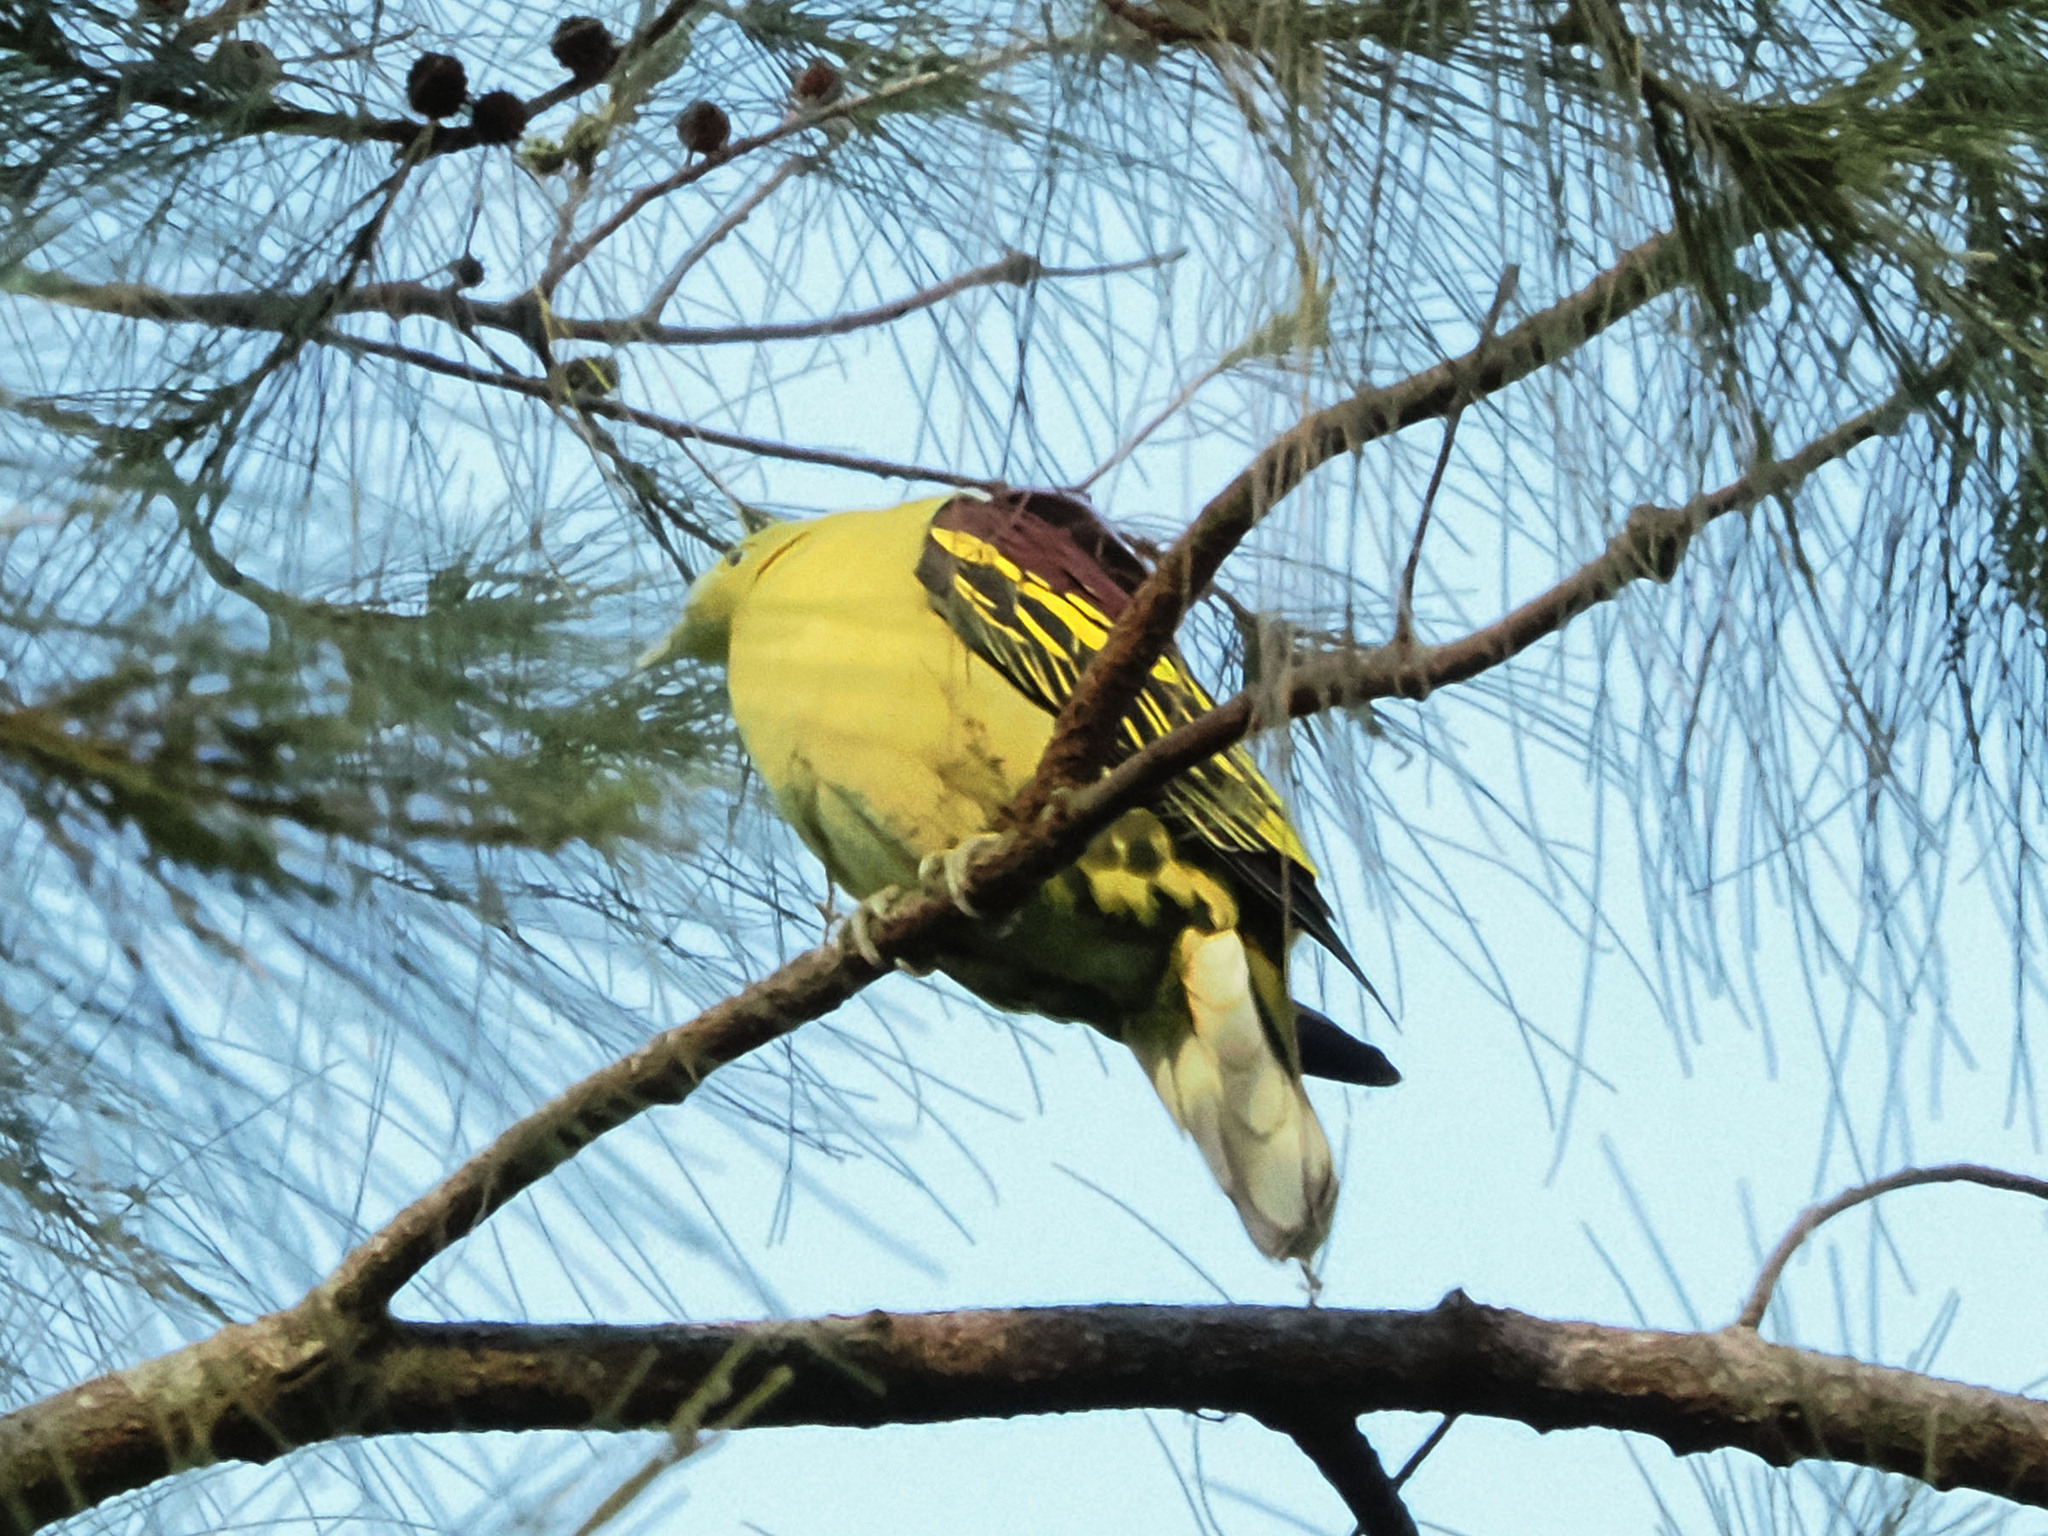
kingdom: Animalia
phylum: Chordata
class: Aves
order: Columbiformes
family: Columbidae
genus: Treron
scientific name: Treron axillaris
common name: Philippine green pigeon
